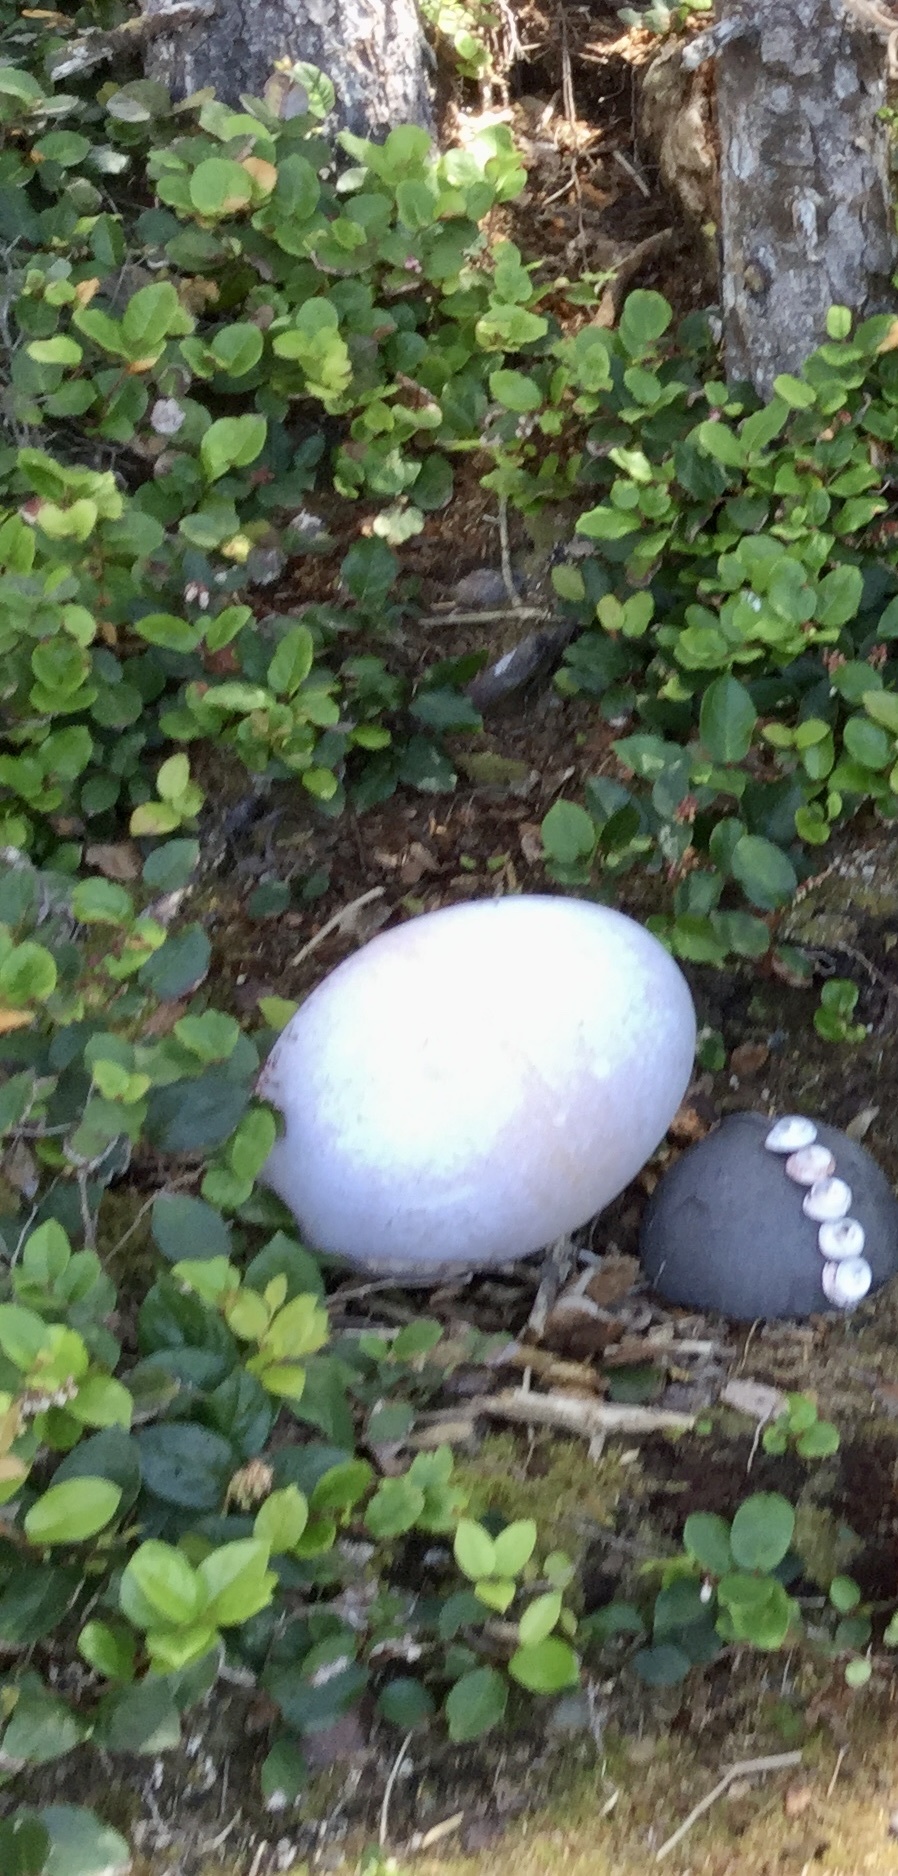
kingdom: Plantae
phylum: Tracheophyta
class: Magnoliopsida
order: Ericales
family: Ericaceae
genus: Gaultheria
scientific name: Gaultheria shallon
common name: Shallon
